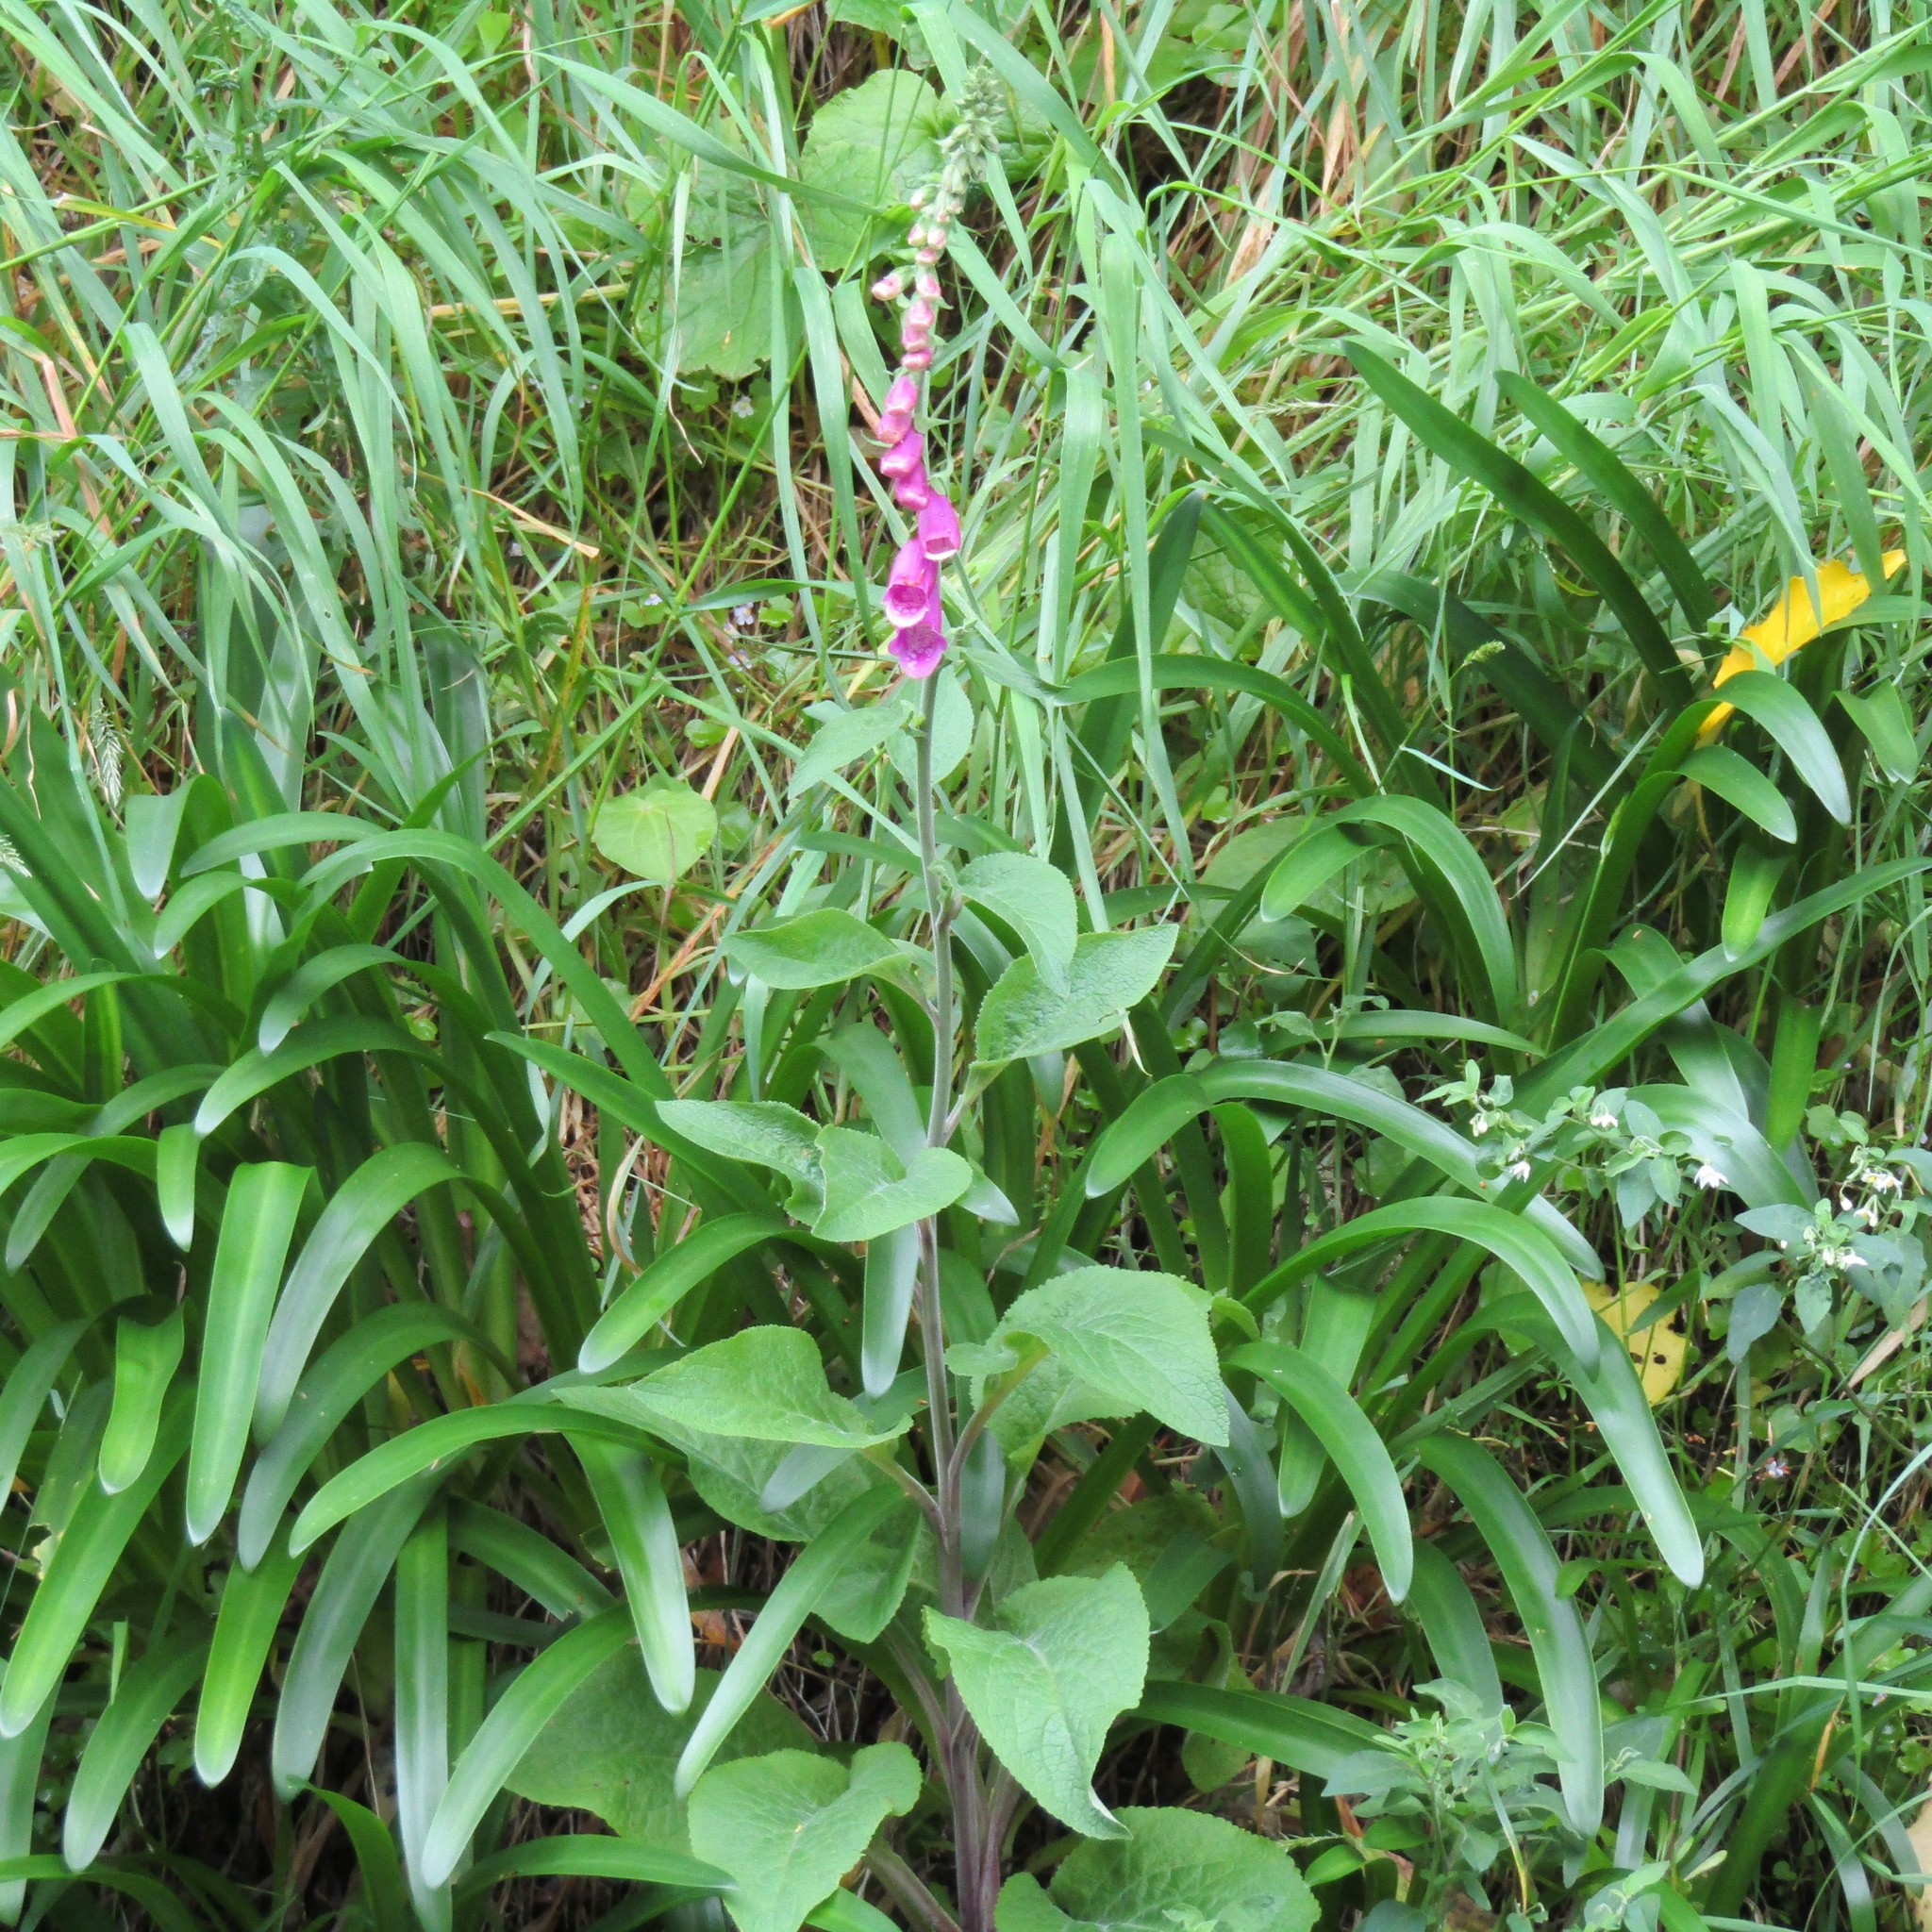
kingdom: Plantae
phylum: Tracheophyta
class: Magnoliopsida
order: Lamiales
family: Plantaginaceae
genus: Digitalis
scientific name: Digitalis purpurea
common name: Foxglove
